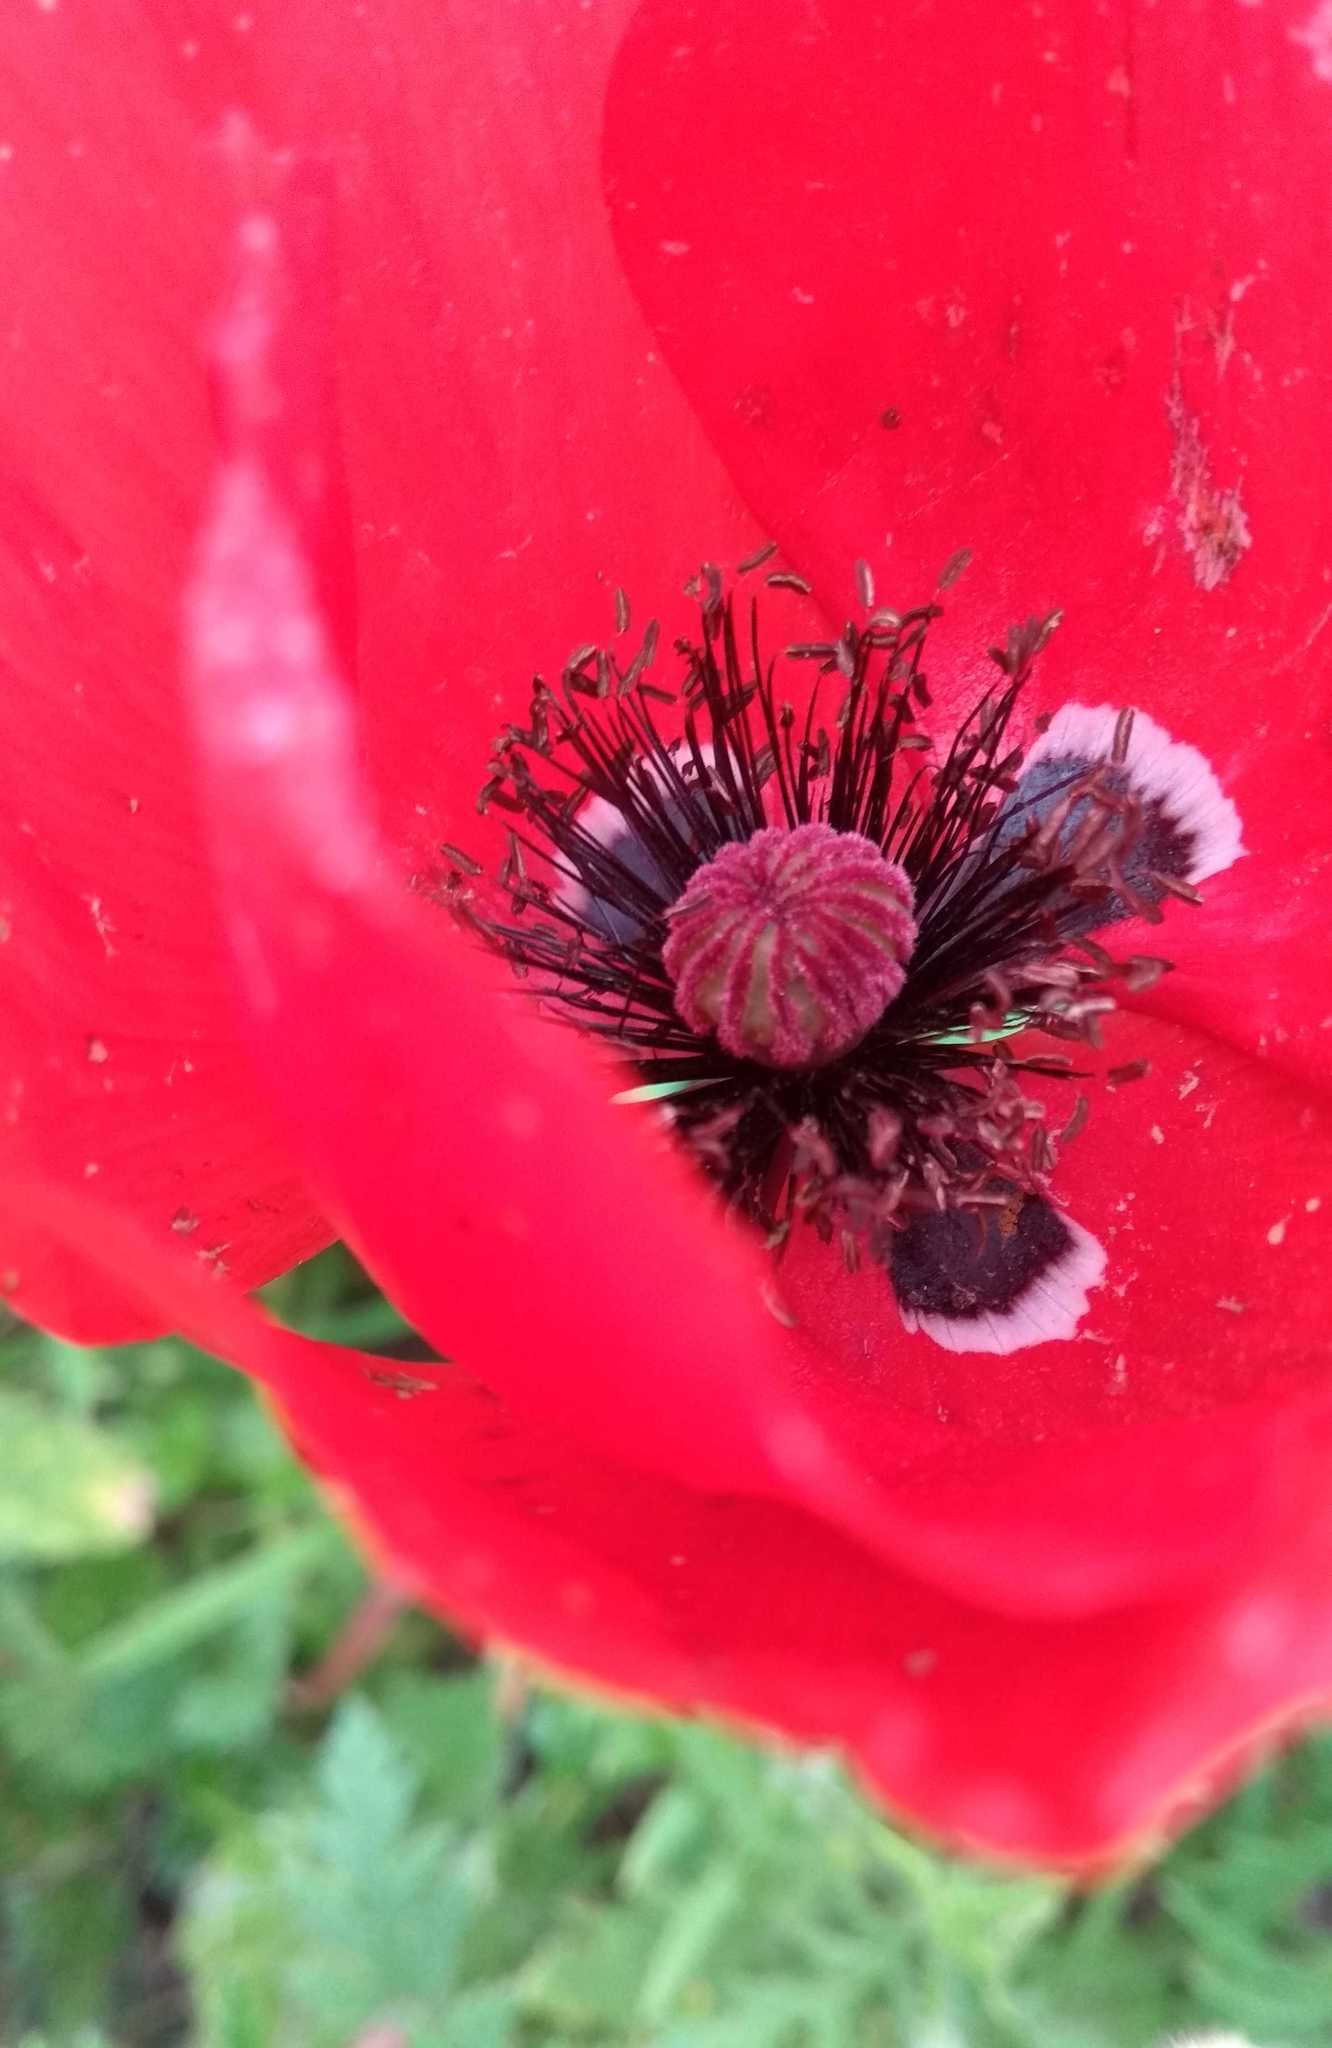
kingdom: Plantae
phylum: Tracheophyta
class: Magnoliopsida
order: Ranunculales
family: Papaveraceae
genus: Papaver
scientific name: Papaver rhoeas
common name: Corn poppy
